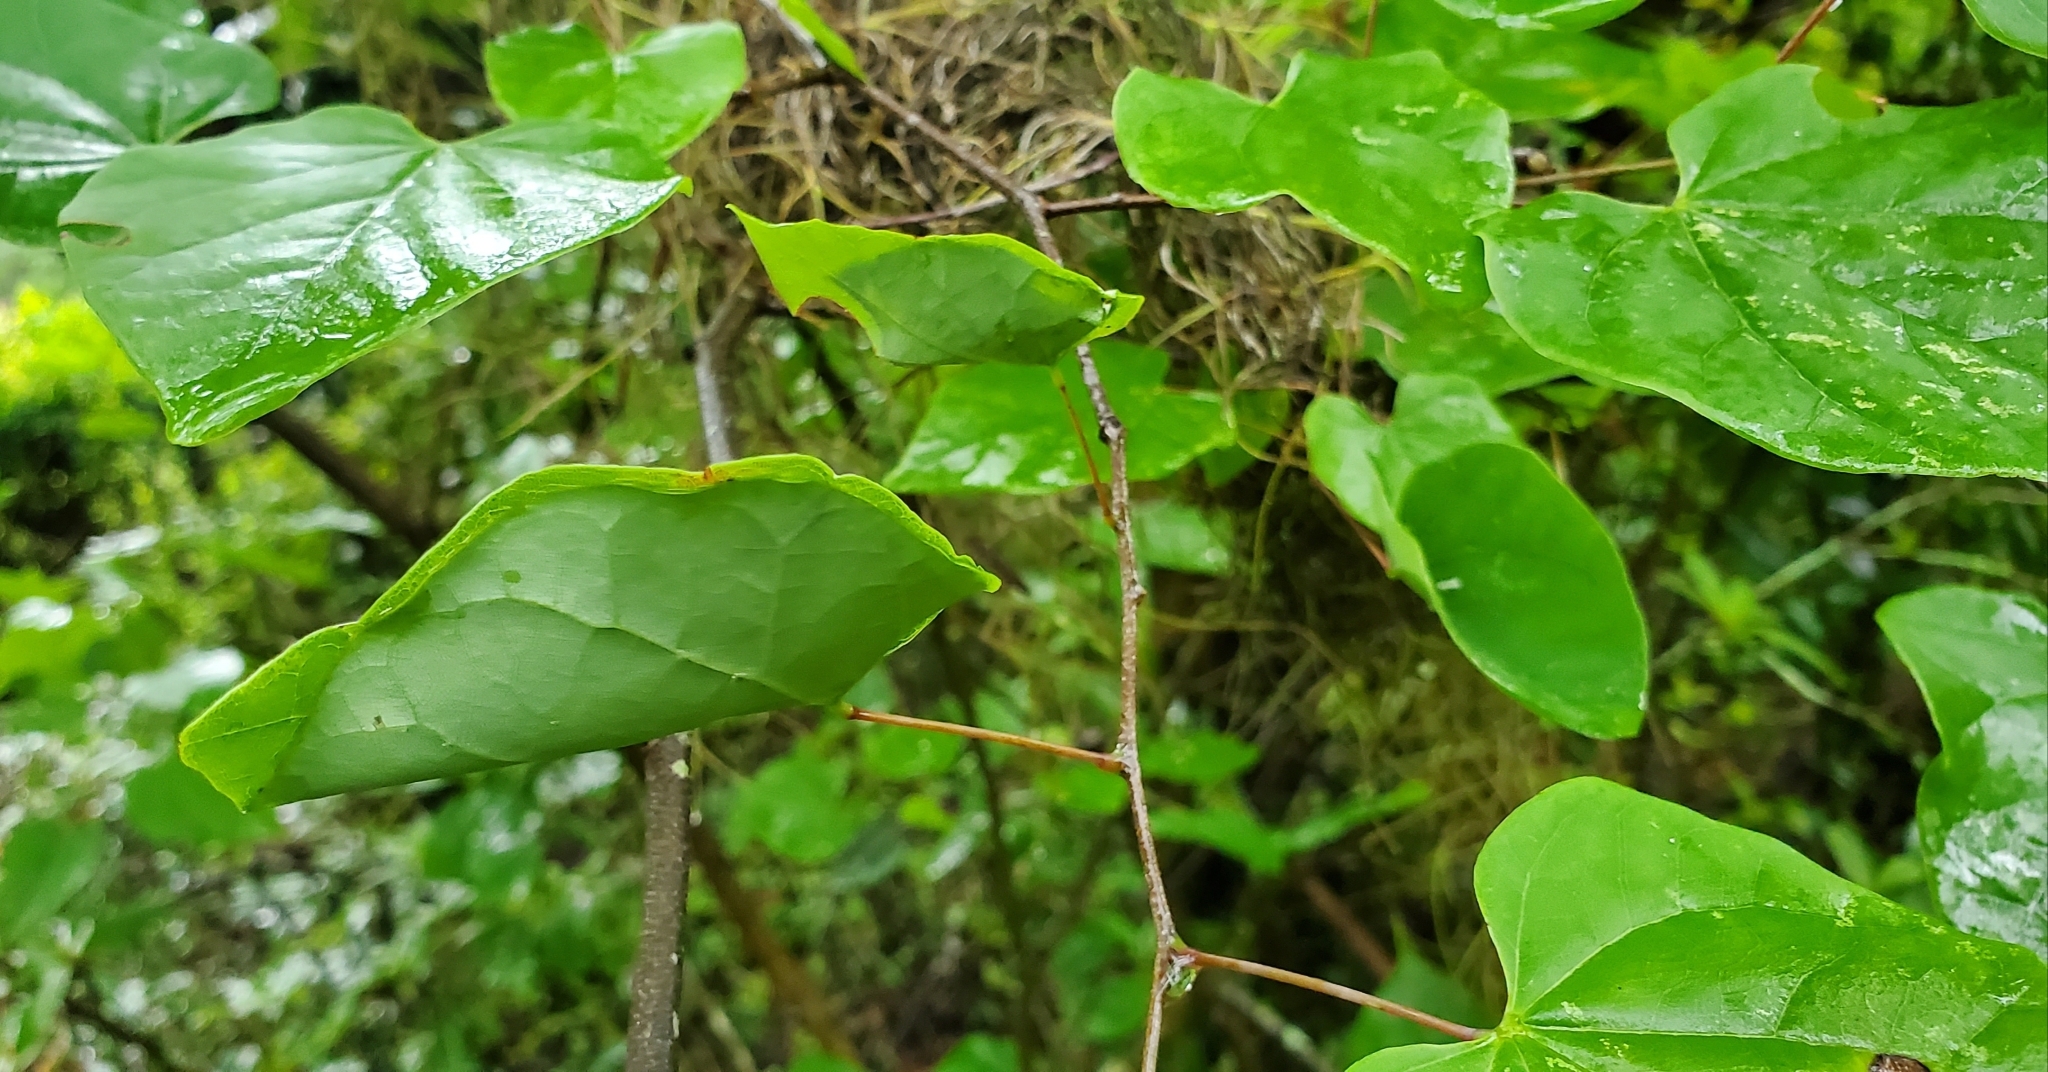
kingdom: Animalia
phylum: Arthropoda
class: Insecta
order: Lepidoptera
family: Gelechiidae
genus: Fascista
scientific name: Fascista cercerisella
